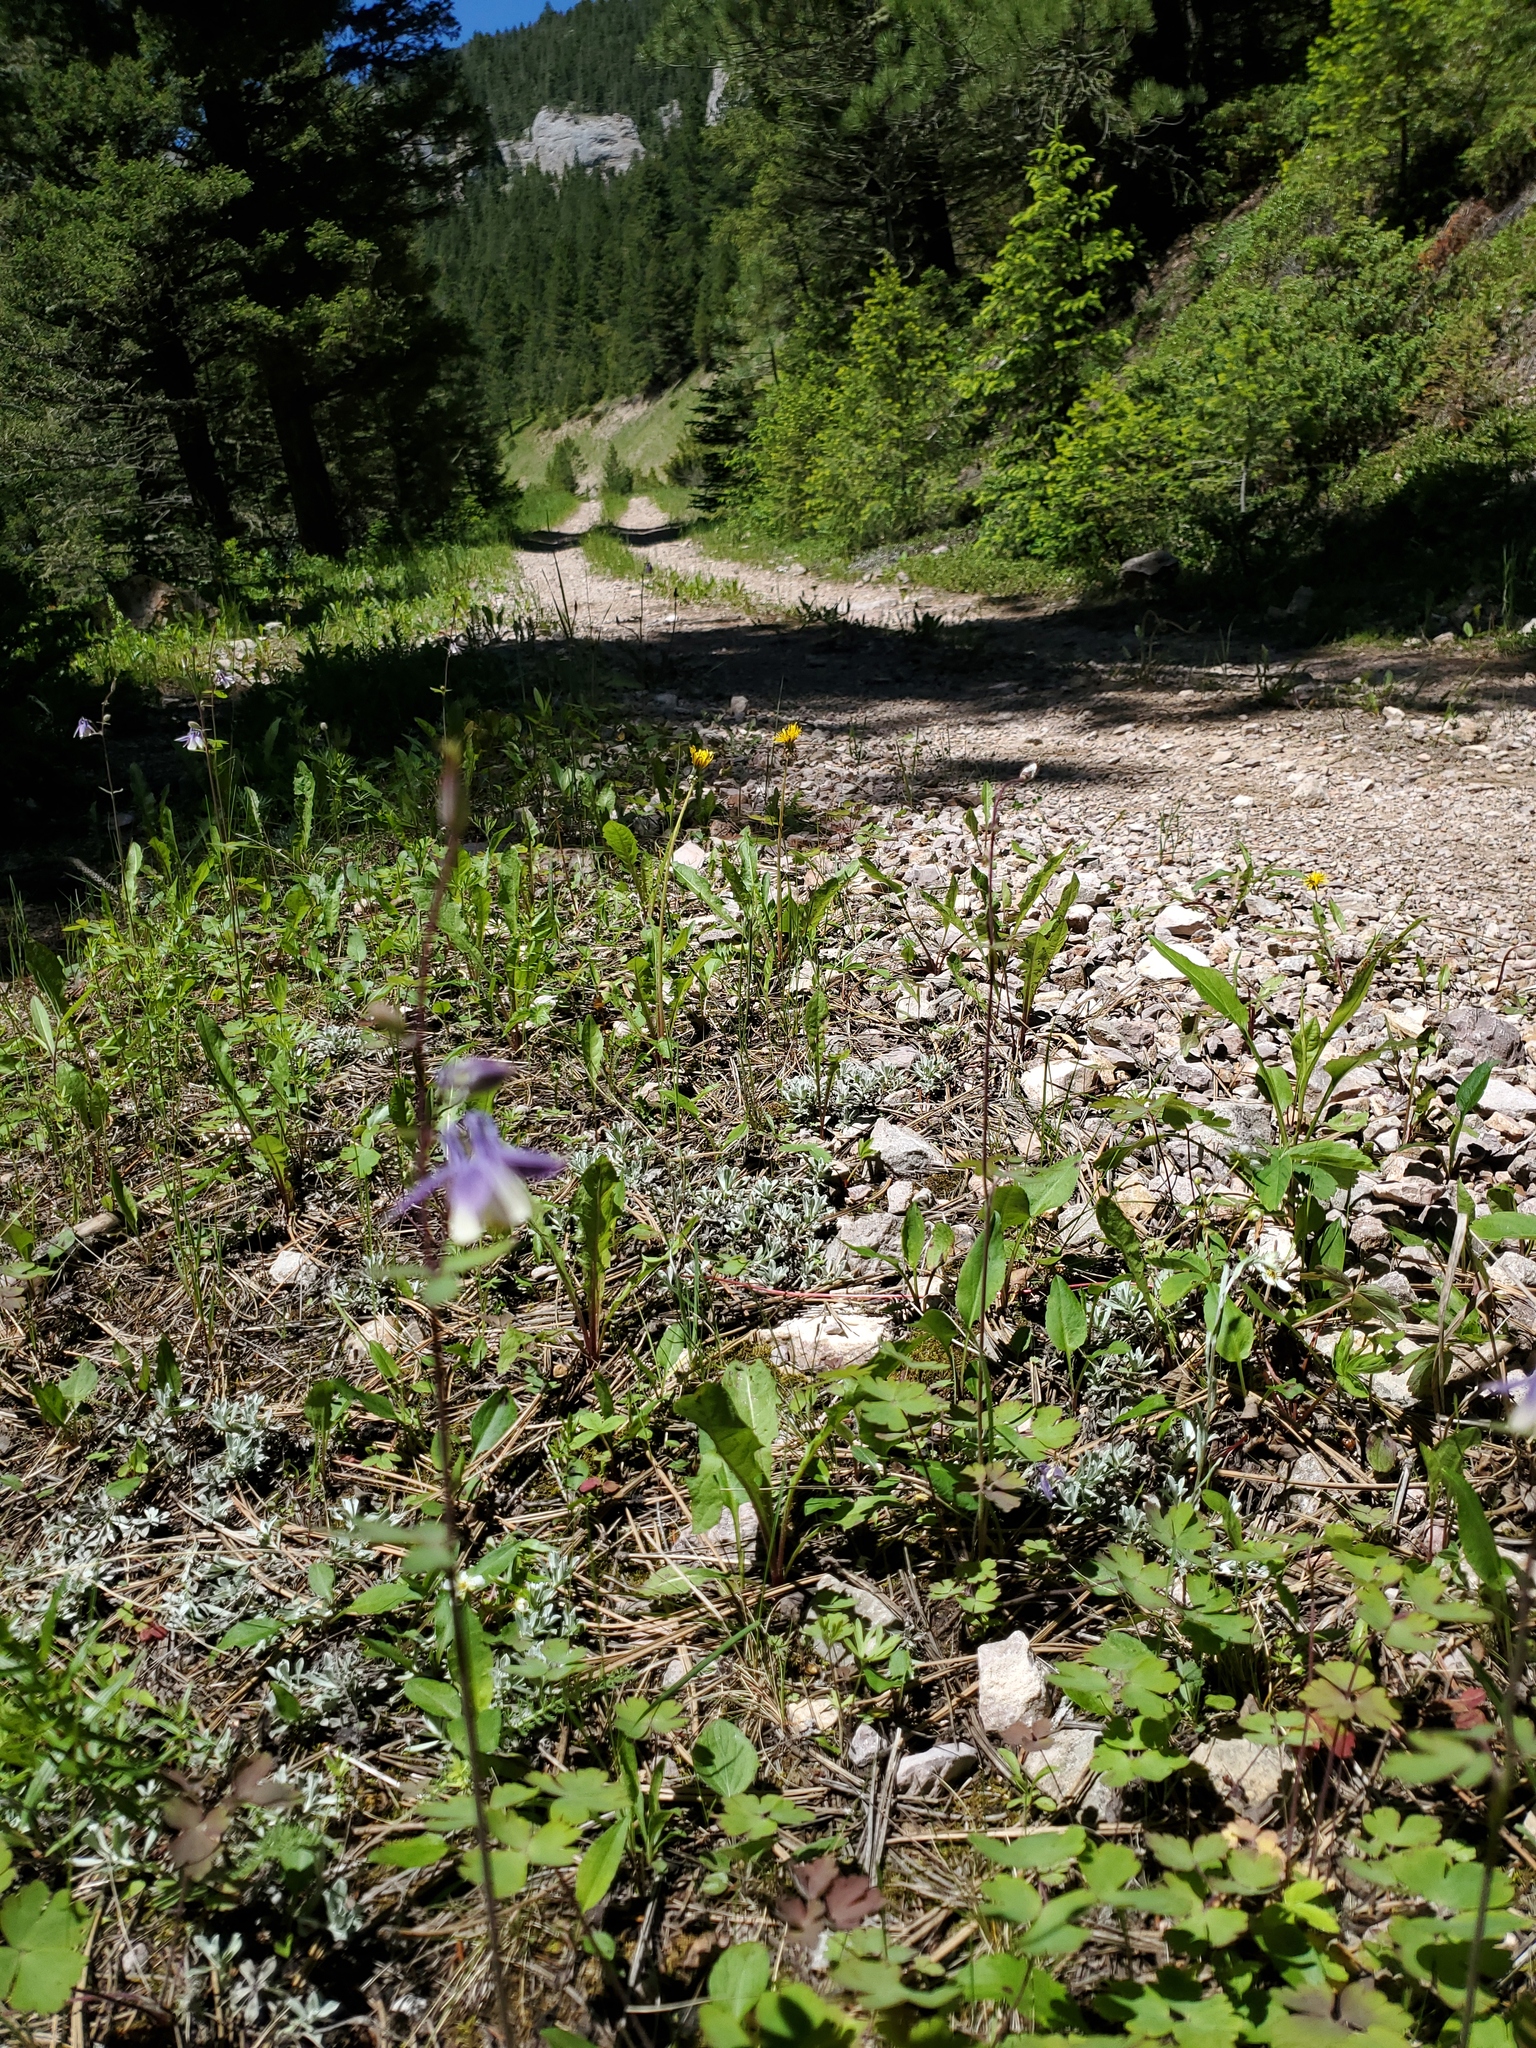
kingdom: Plantae
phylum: Tracheophyta
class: Magnoliopsida
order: Ranunculales
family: Ranunculaceae
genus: Aquilegia
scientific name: Aquilegia brevistyla
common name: Yukon columbine
